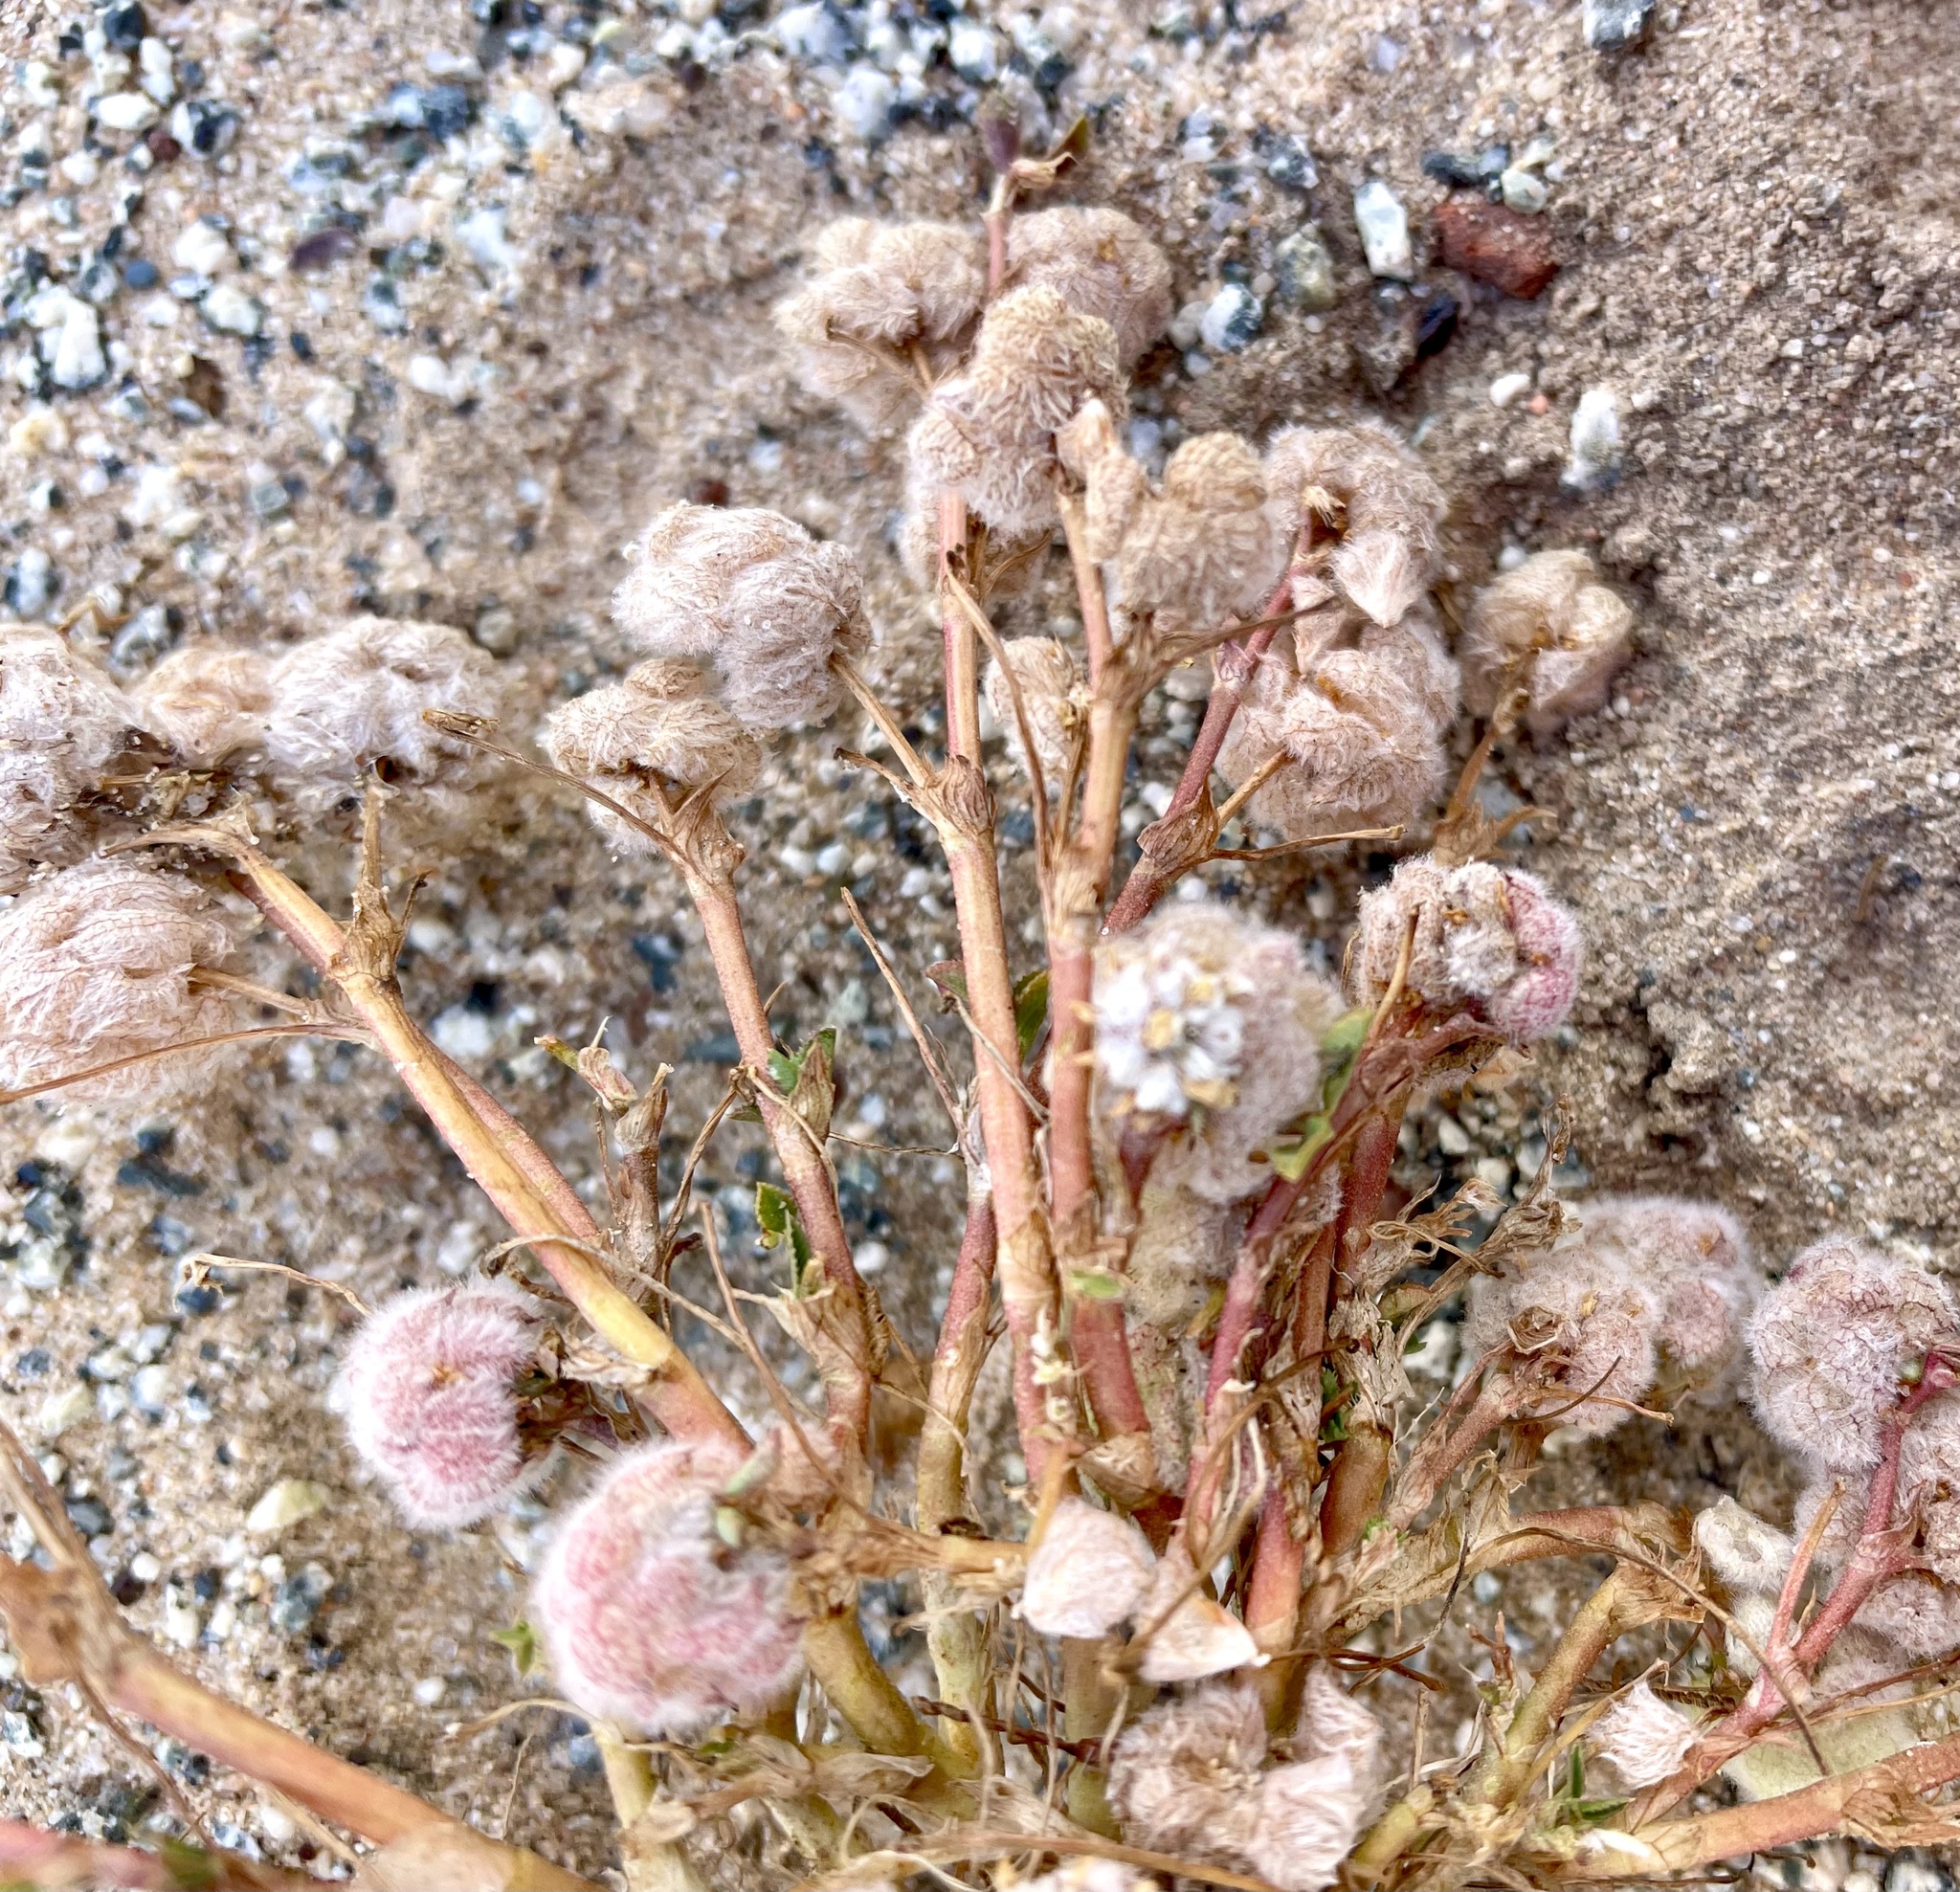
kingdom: Plantae
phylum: Tracheophyta
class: Magnoliopsida
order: Fabales
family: Fabaceae
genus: Trifolium
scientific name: Trifolium tomentosum
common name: Woolly clover
